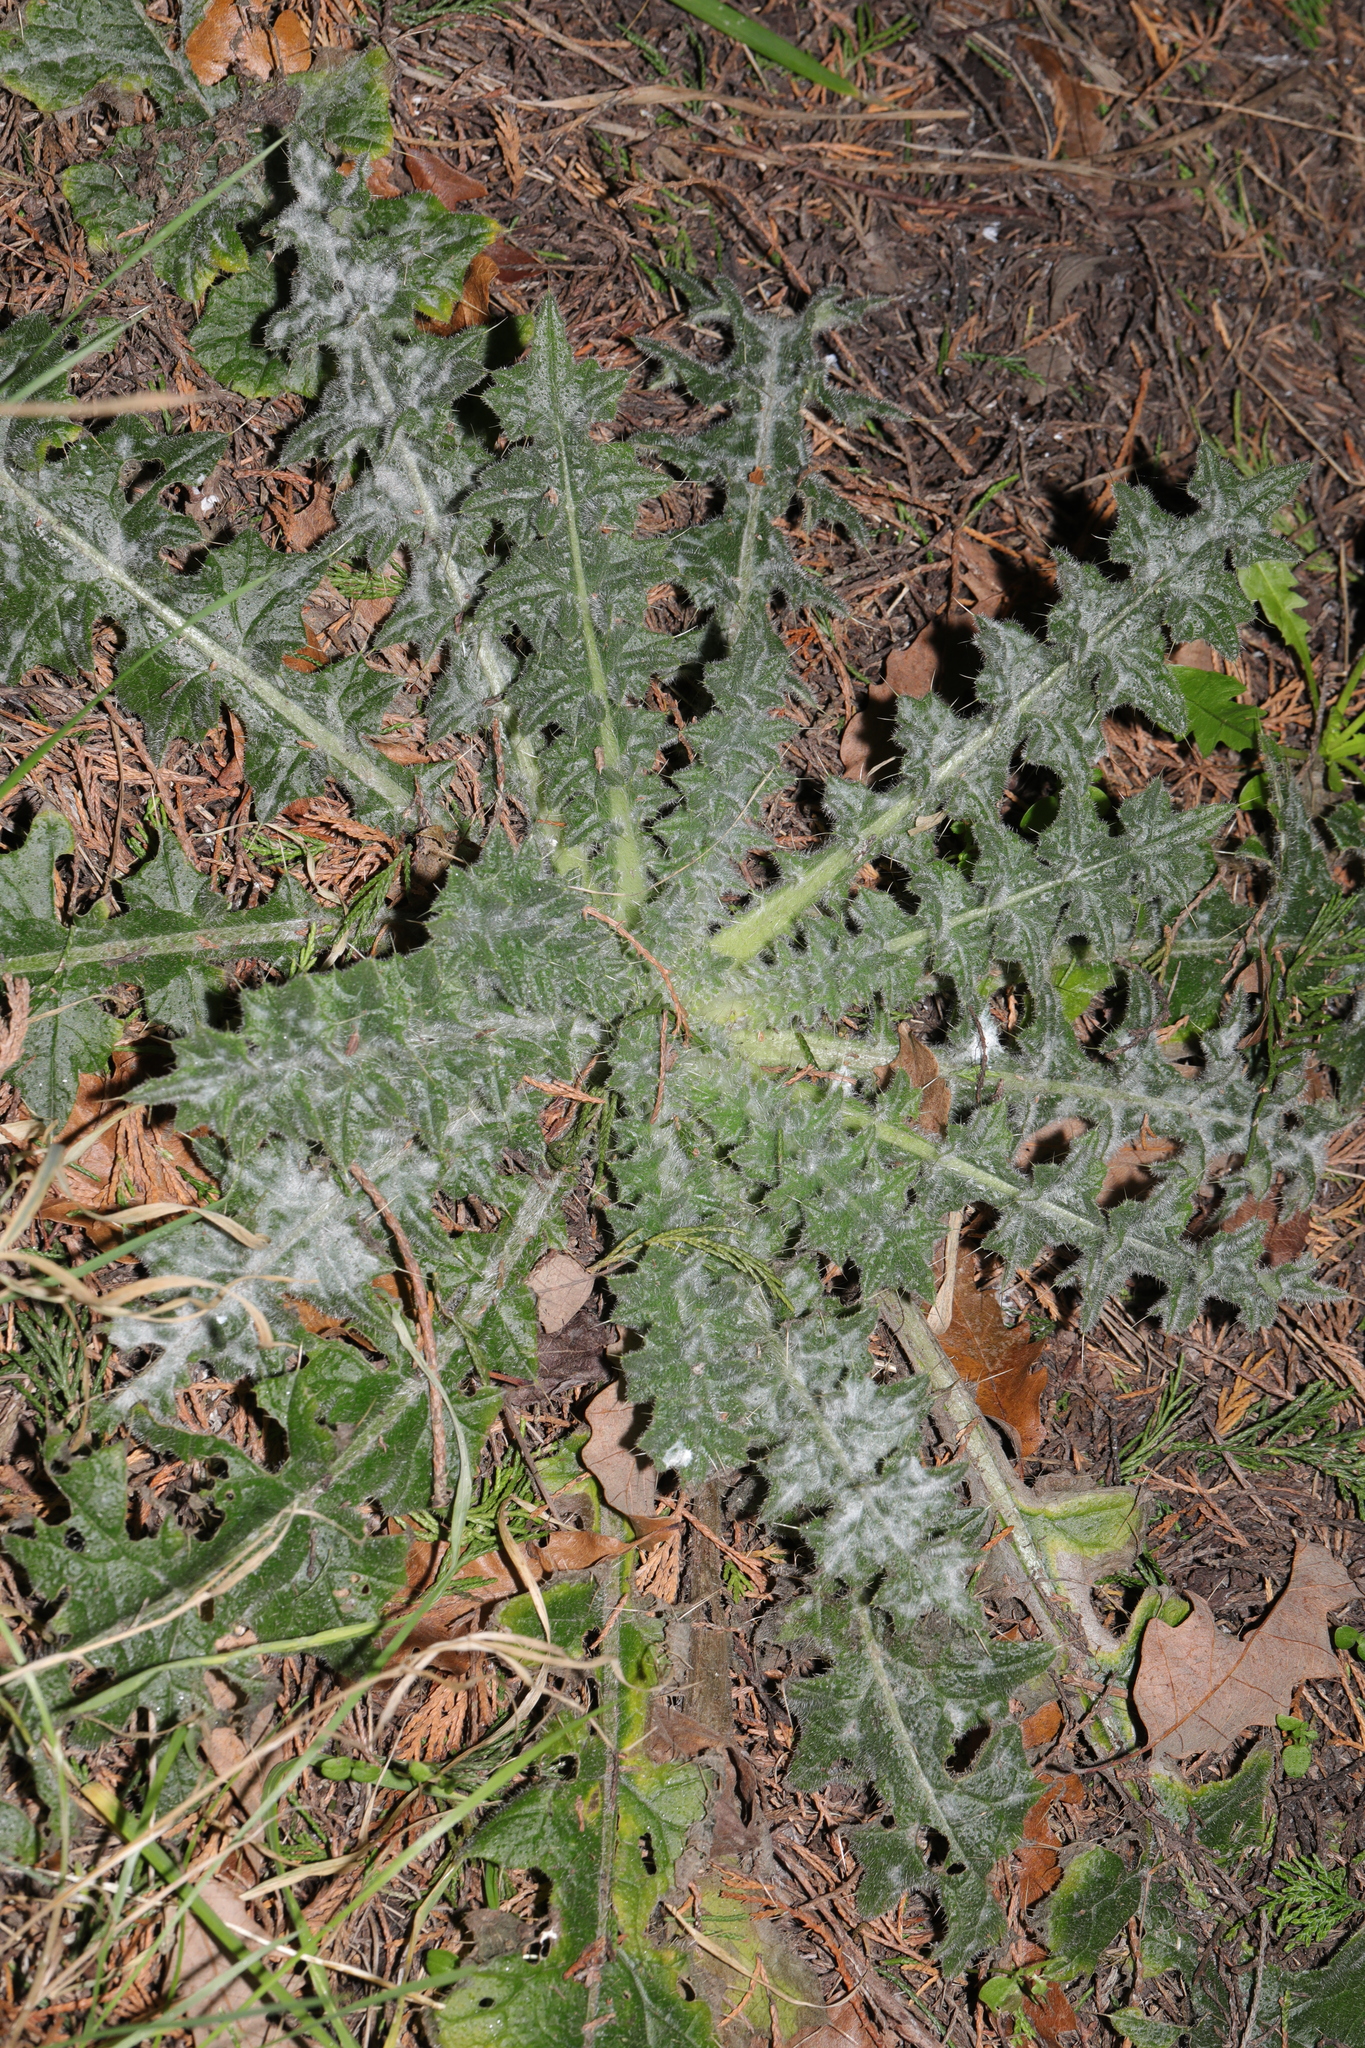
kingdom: Plantae
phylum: Tracheophyta
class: Magnoliopsida
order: Asterales
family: Asteraceae
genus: Cirsium
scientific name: Cirsium vulgare
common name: Bull thistle
